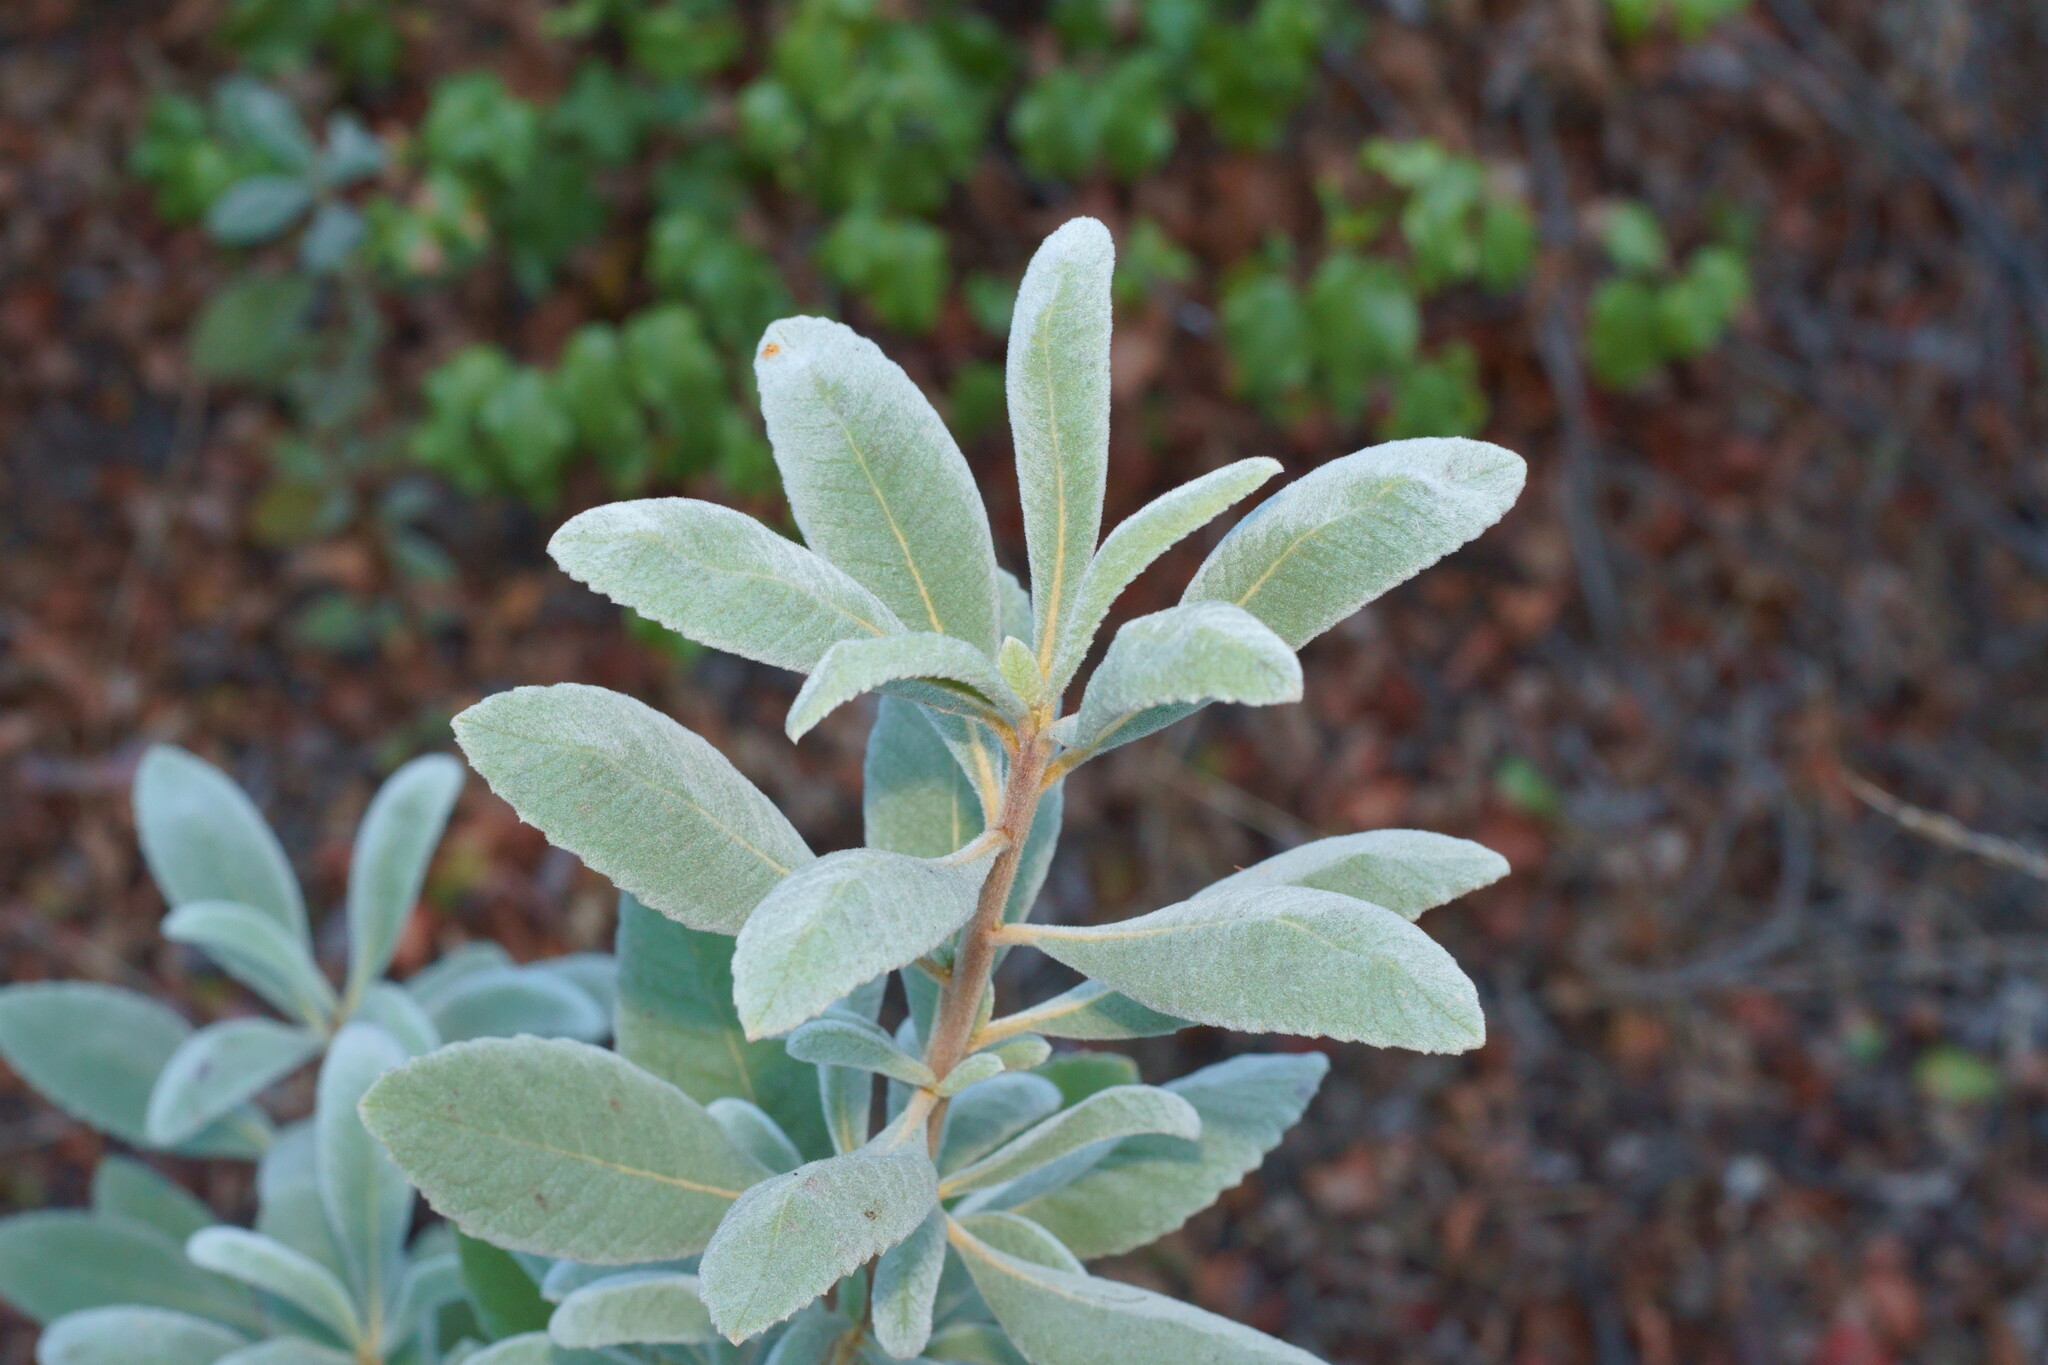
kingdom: Plantae
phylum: Tracheophyta
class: Magnoliopsida
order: Boraginales
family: Namaceae
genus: Eriodictyon
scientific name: Eriodictyon crassifolium
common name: Thick-leaf yerba-santa
